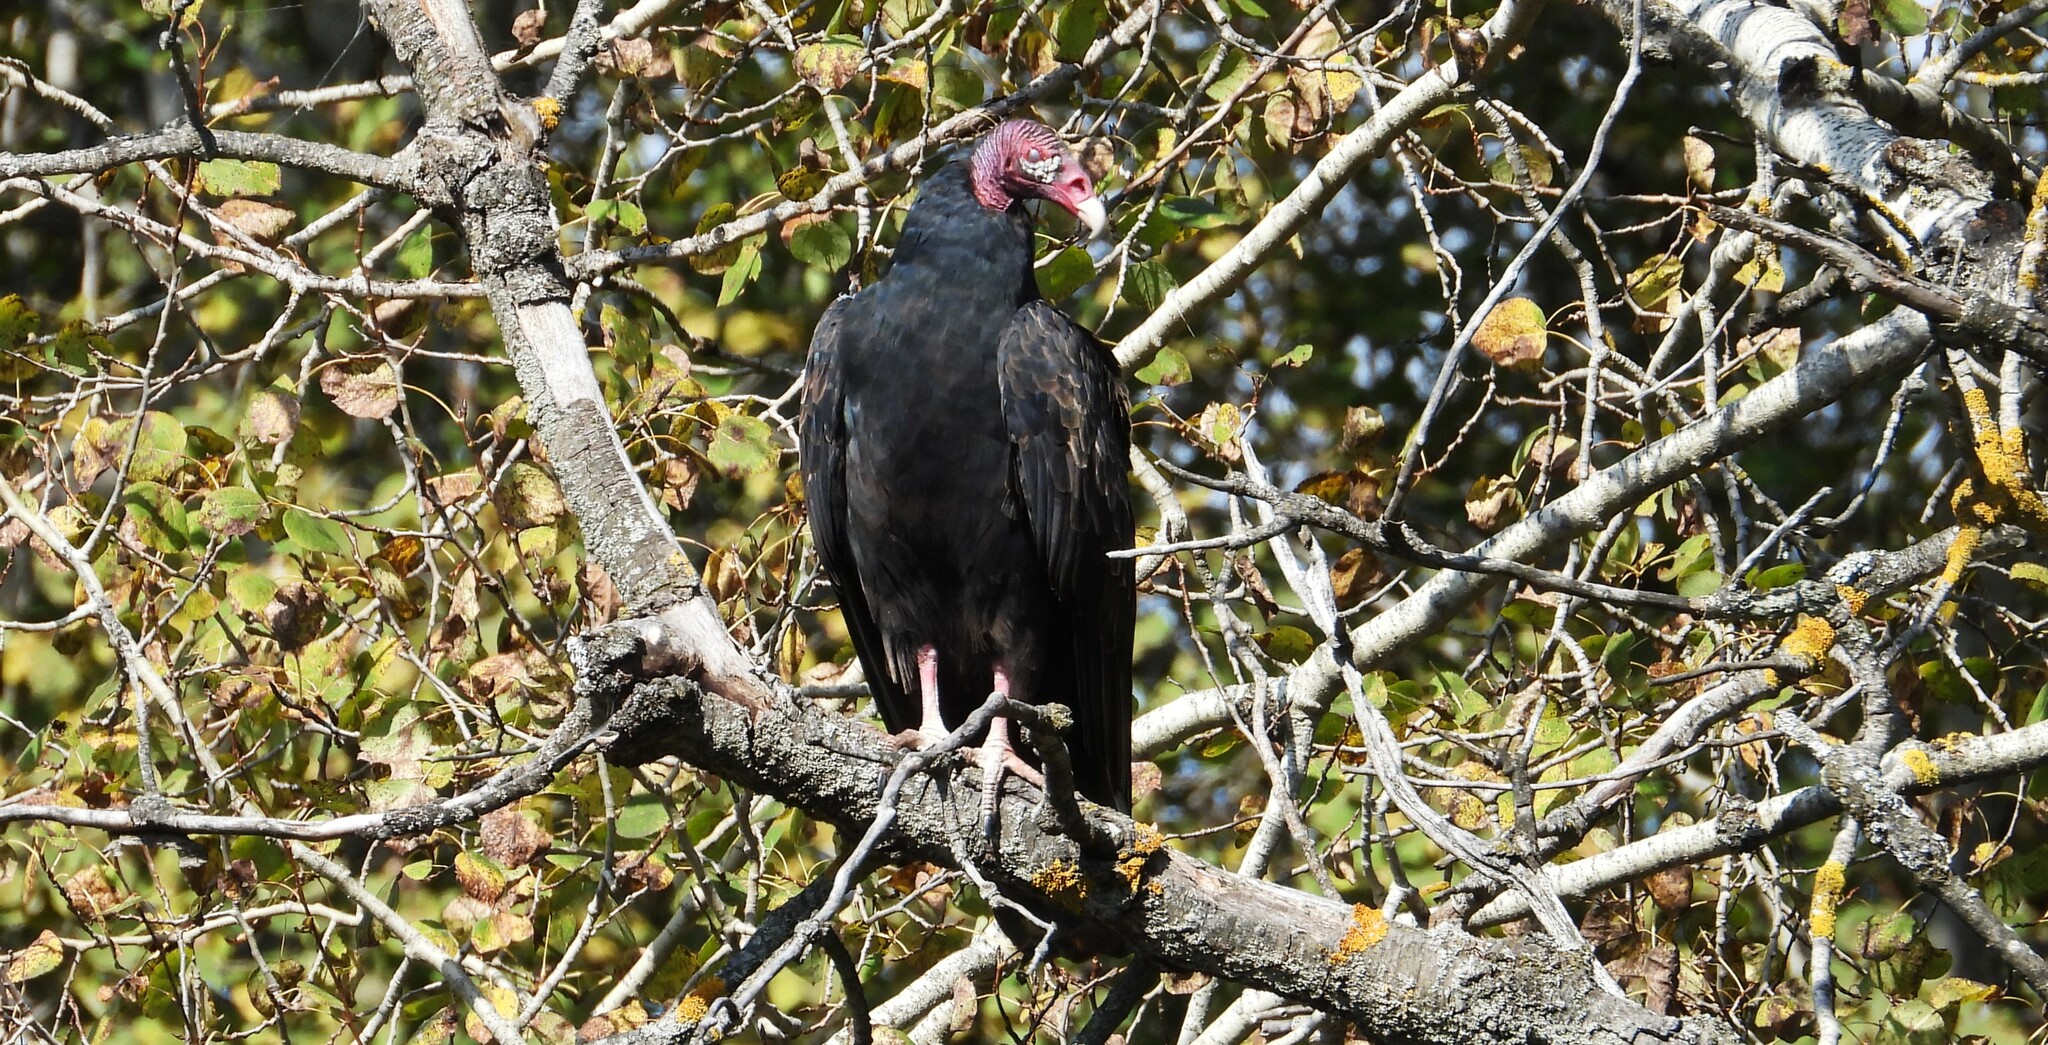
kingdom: Animalia
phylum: Chordata
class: Aves
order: Accipitriformes
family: Cathartidae
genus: Cathartes
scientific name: Cathartes aura
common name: Turkey vulture
